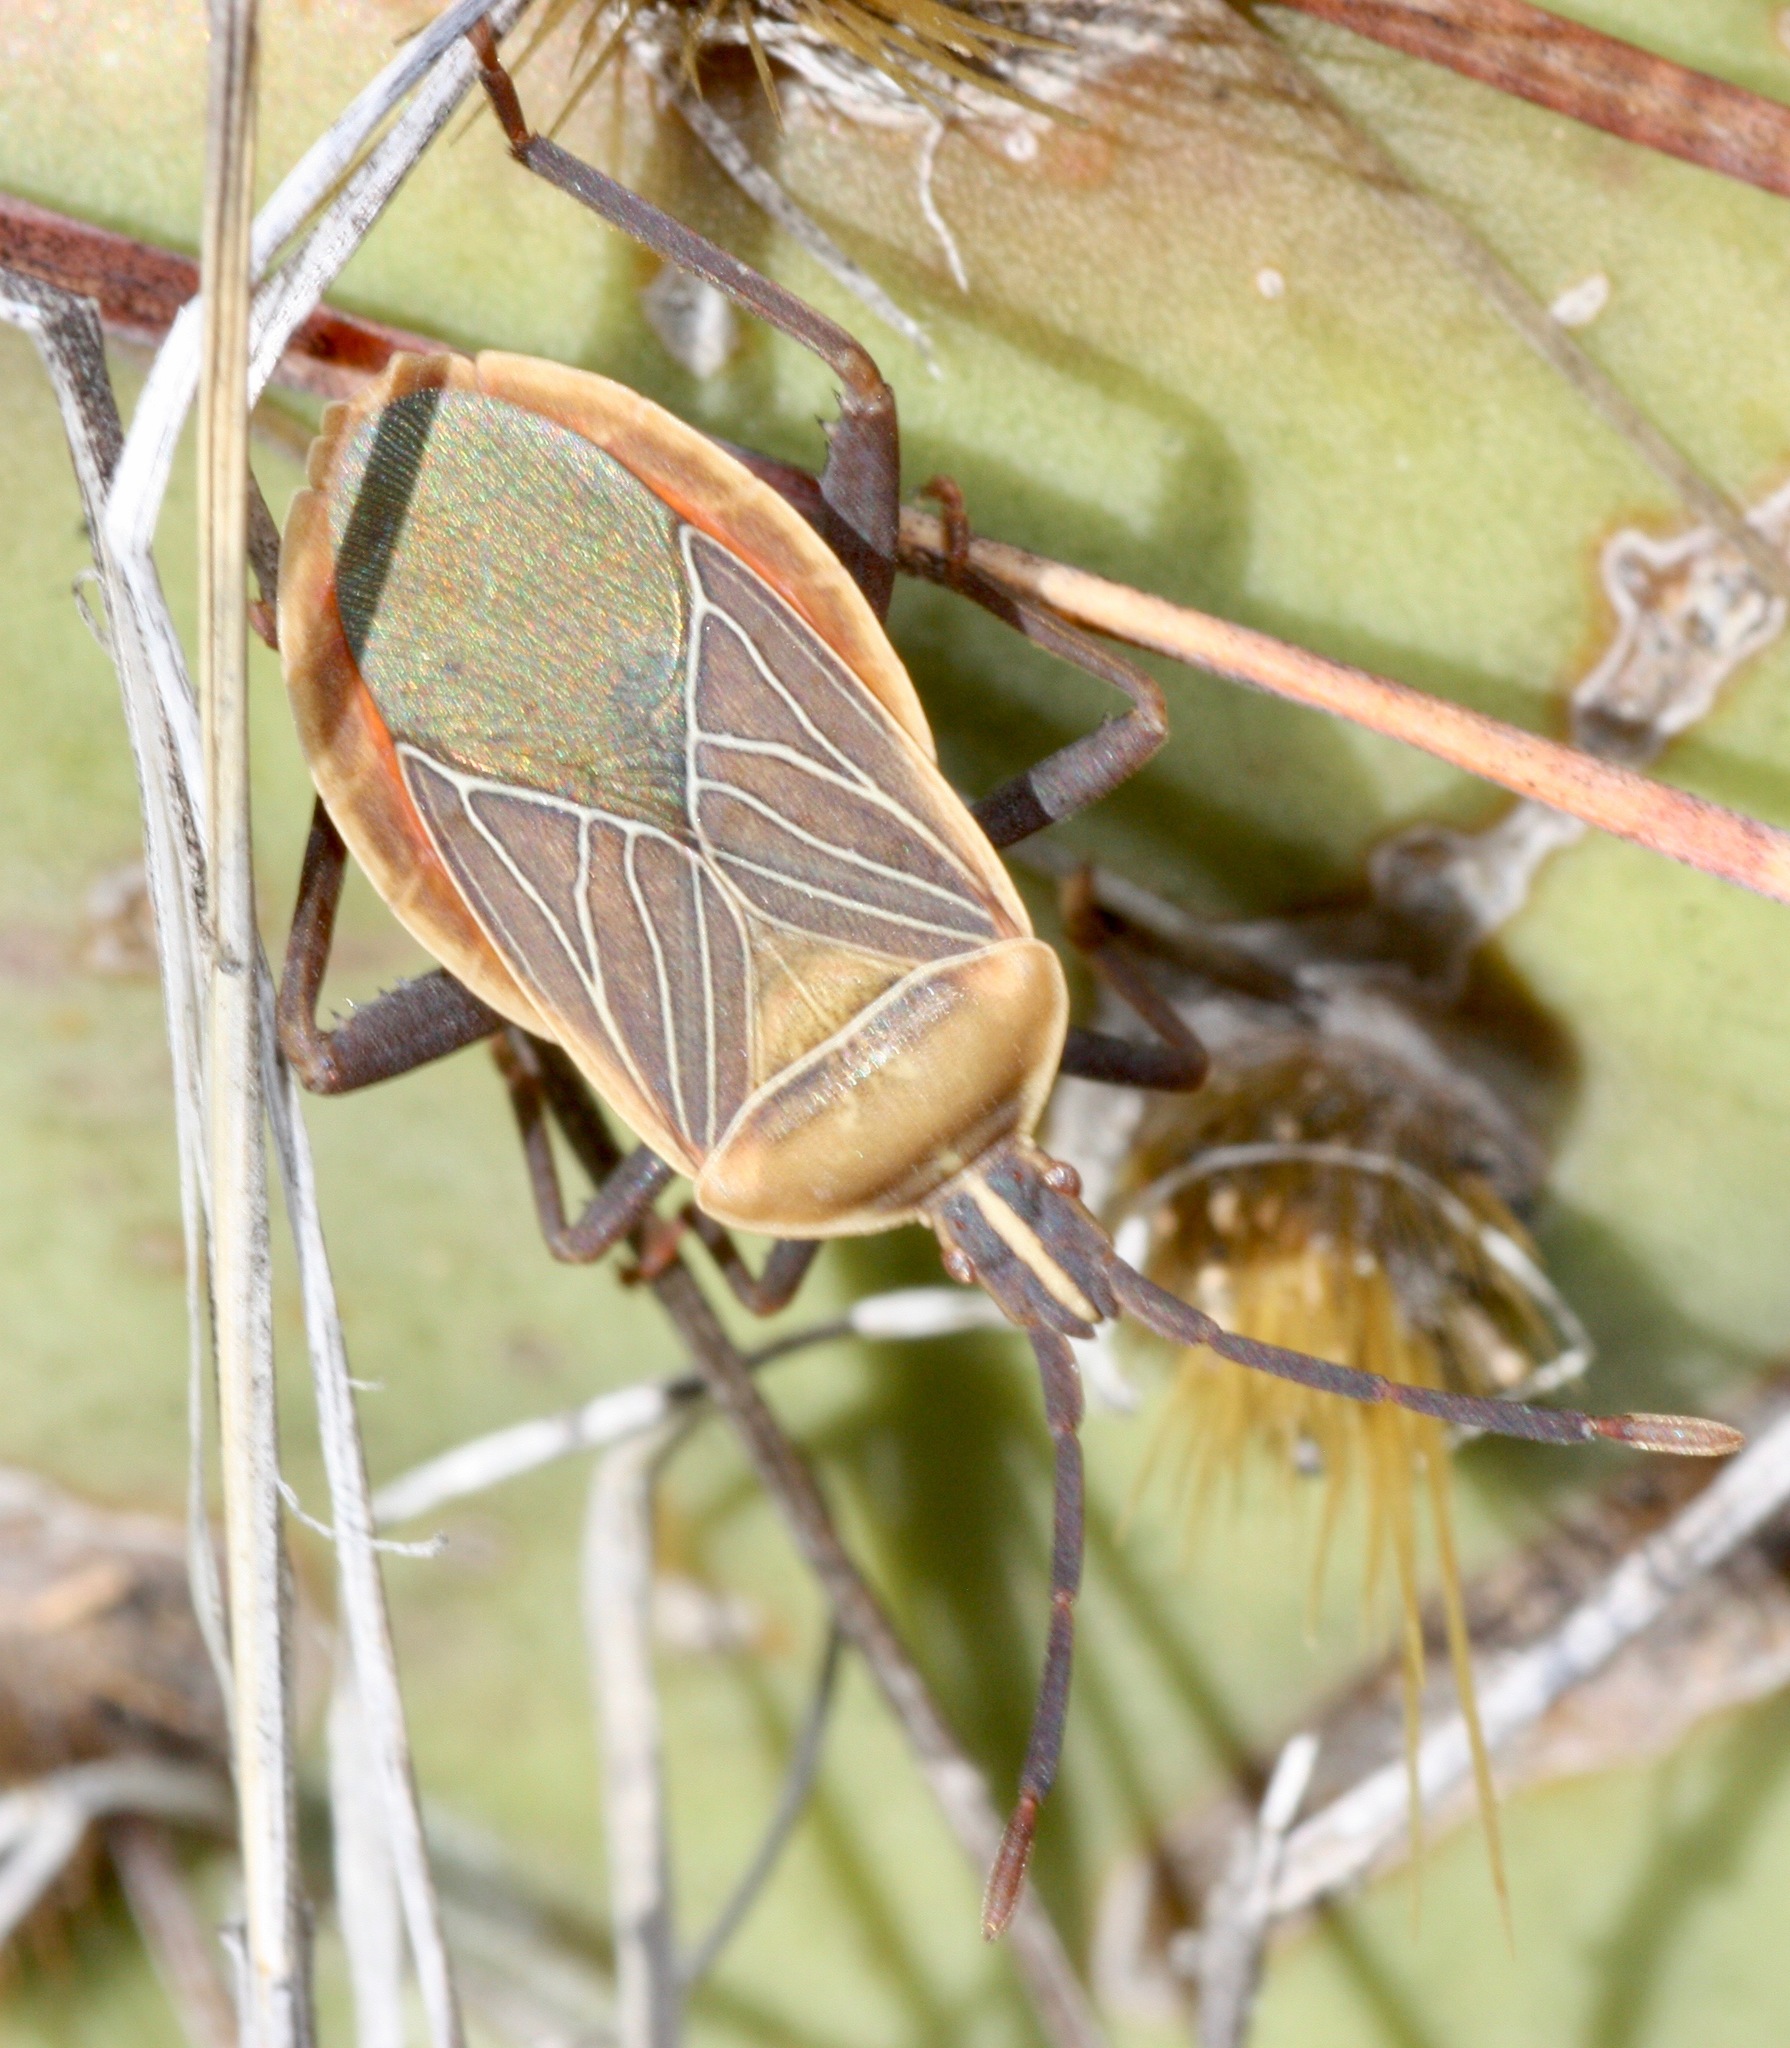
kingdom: Animalia
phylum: Arthropoda
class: Insecta
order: Hemiptera
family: Coreidae
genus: Chelinidea
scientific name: Chelinidea vittiger
